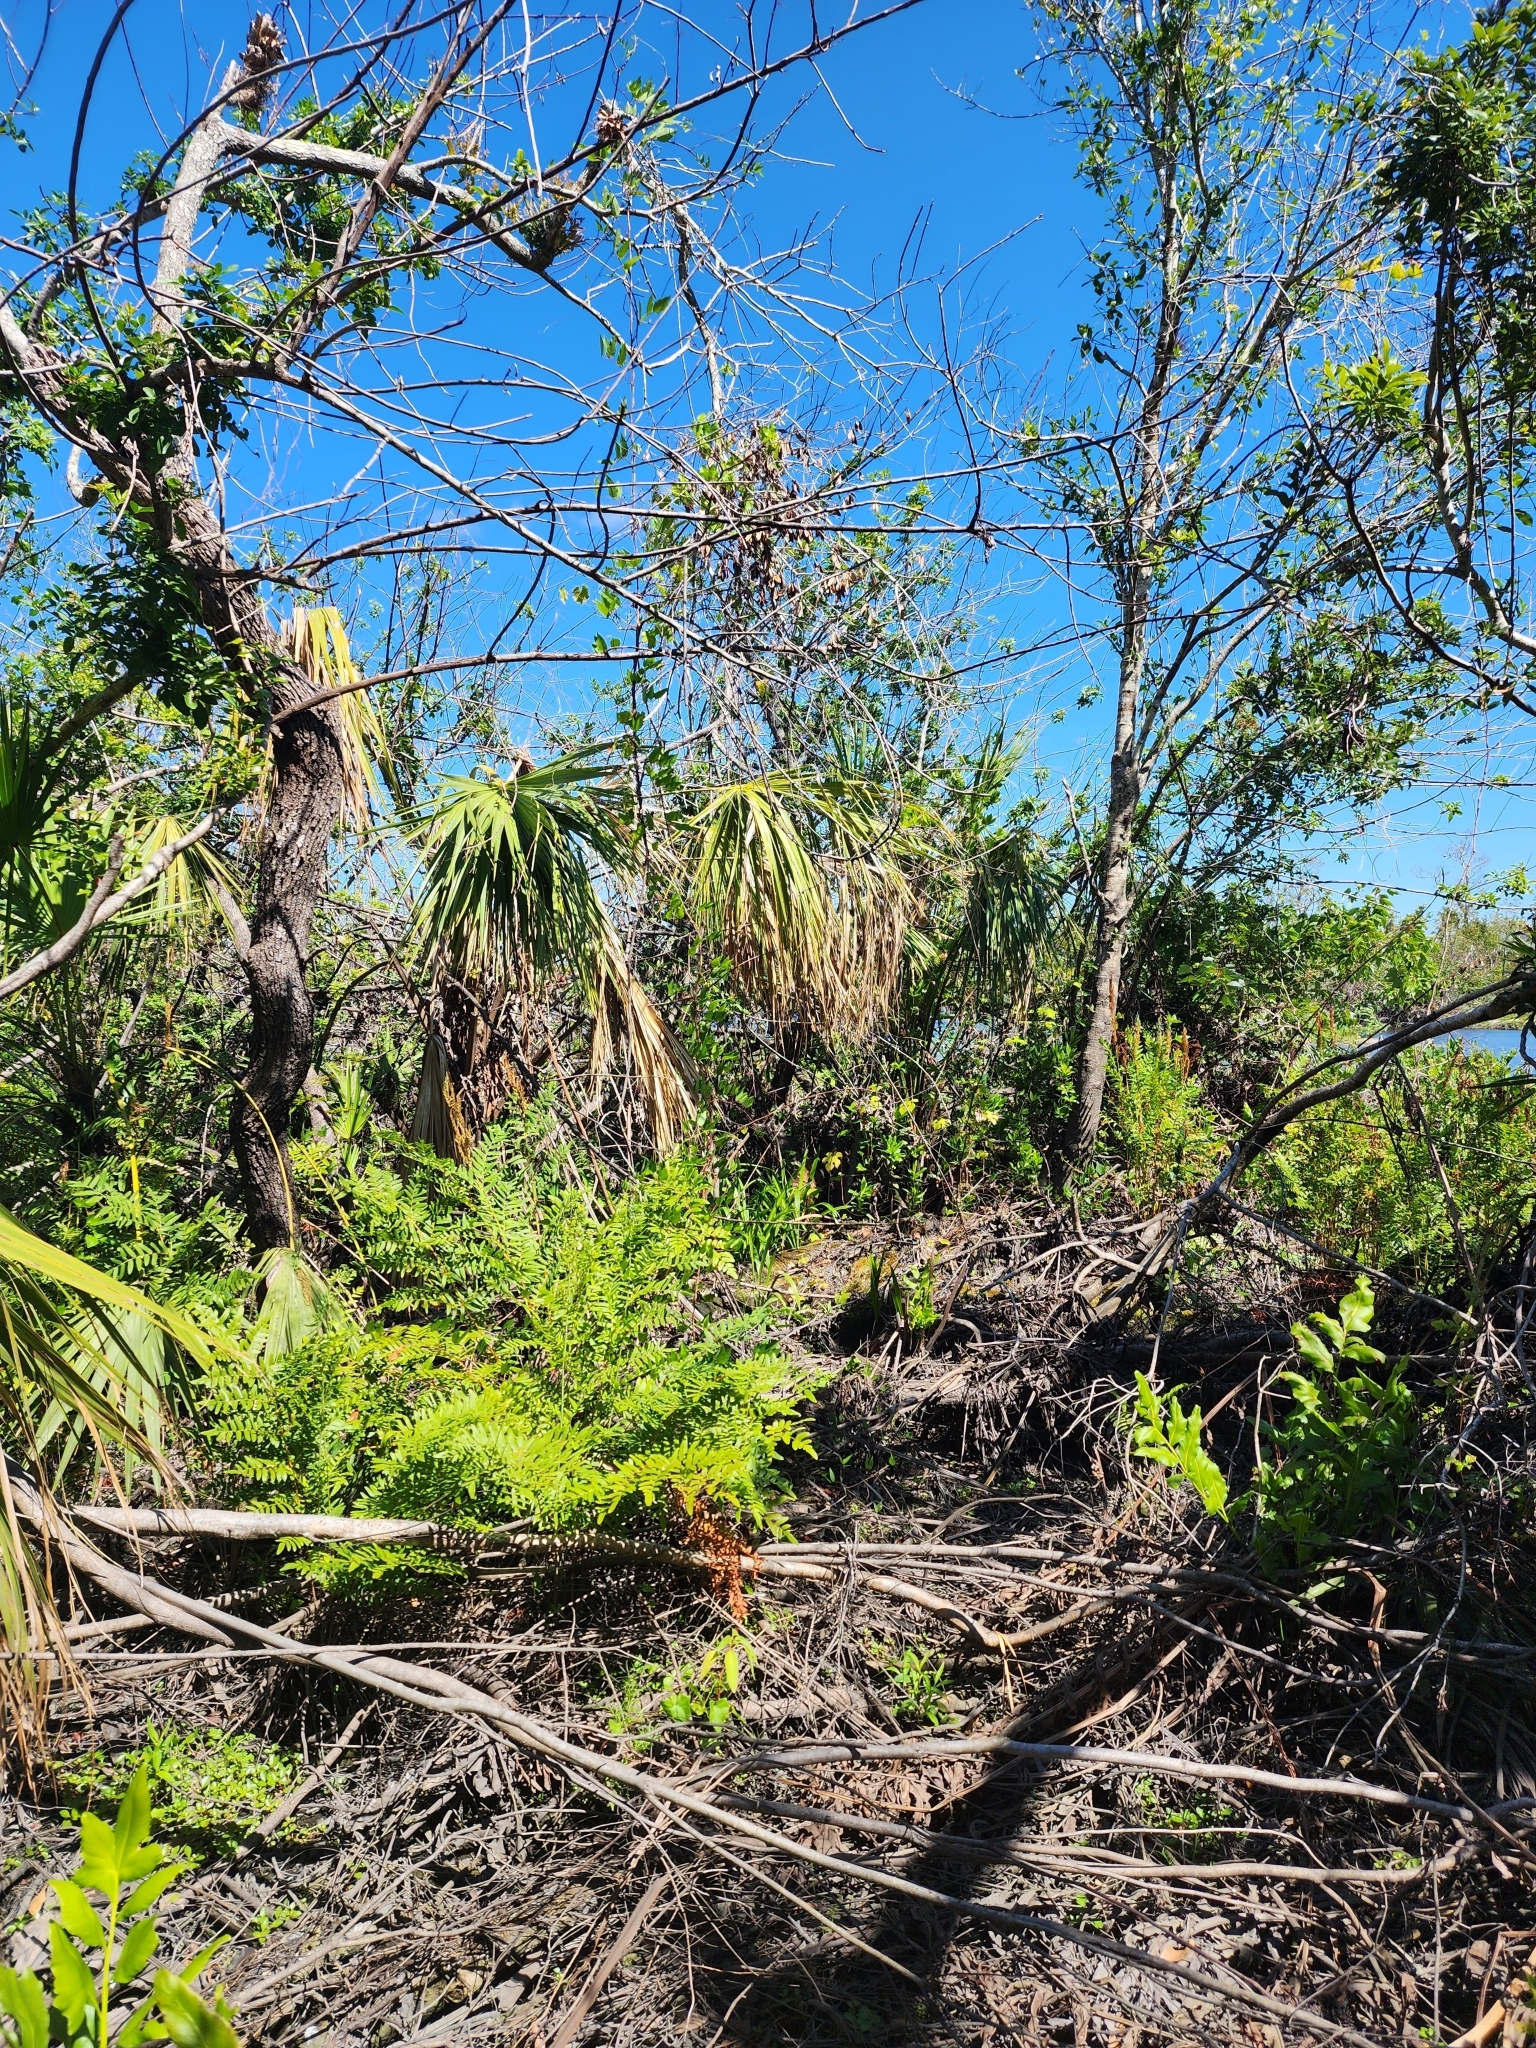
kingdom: Plantae
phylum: Tracheophyta
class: Polypodiopsida
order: Osmundales
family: Osmundaceae
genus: Osmunda
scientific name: Osmunda spectabilis
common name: American royal fern
